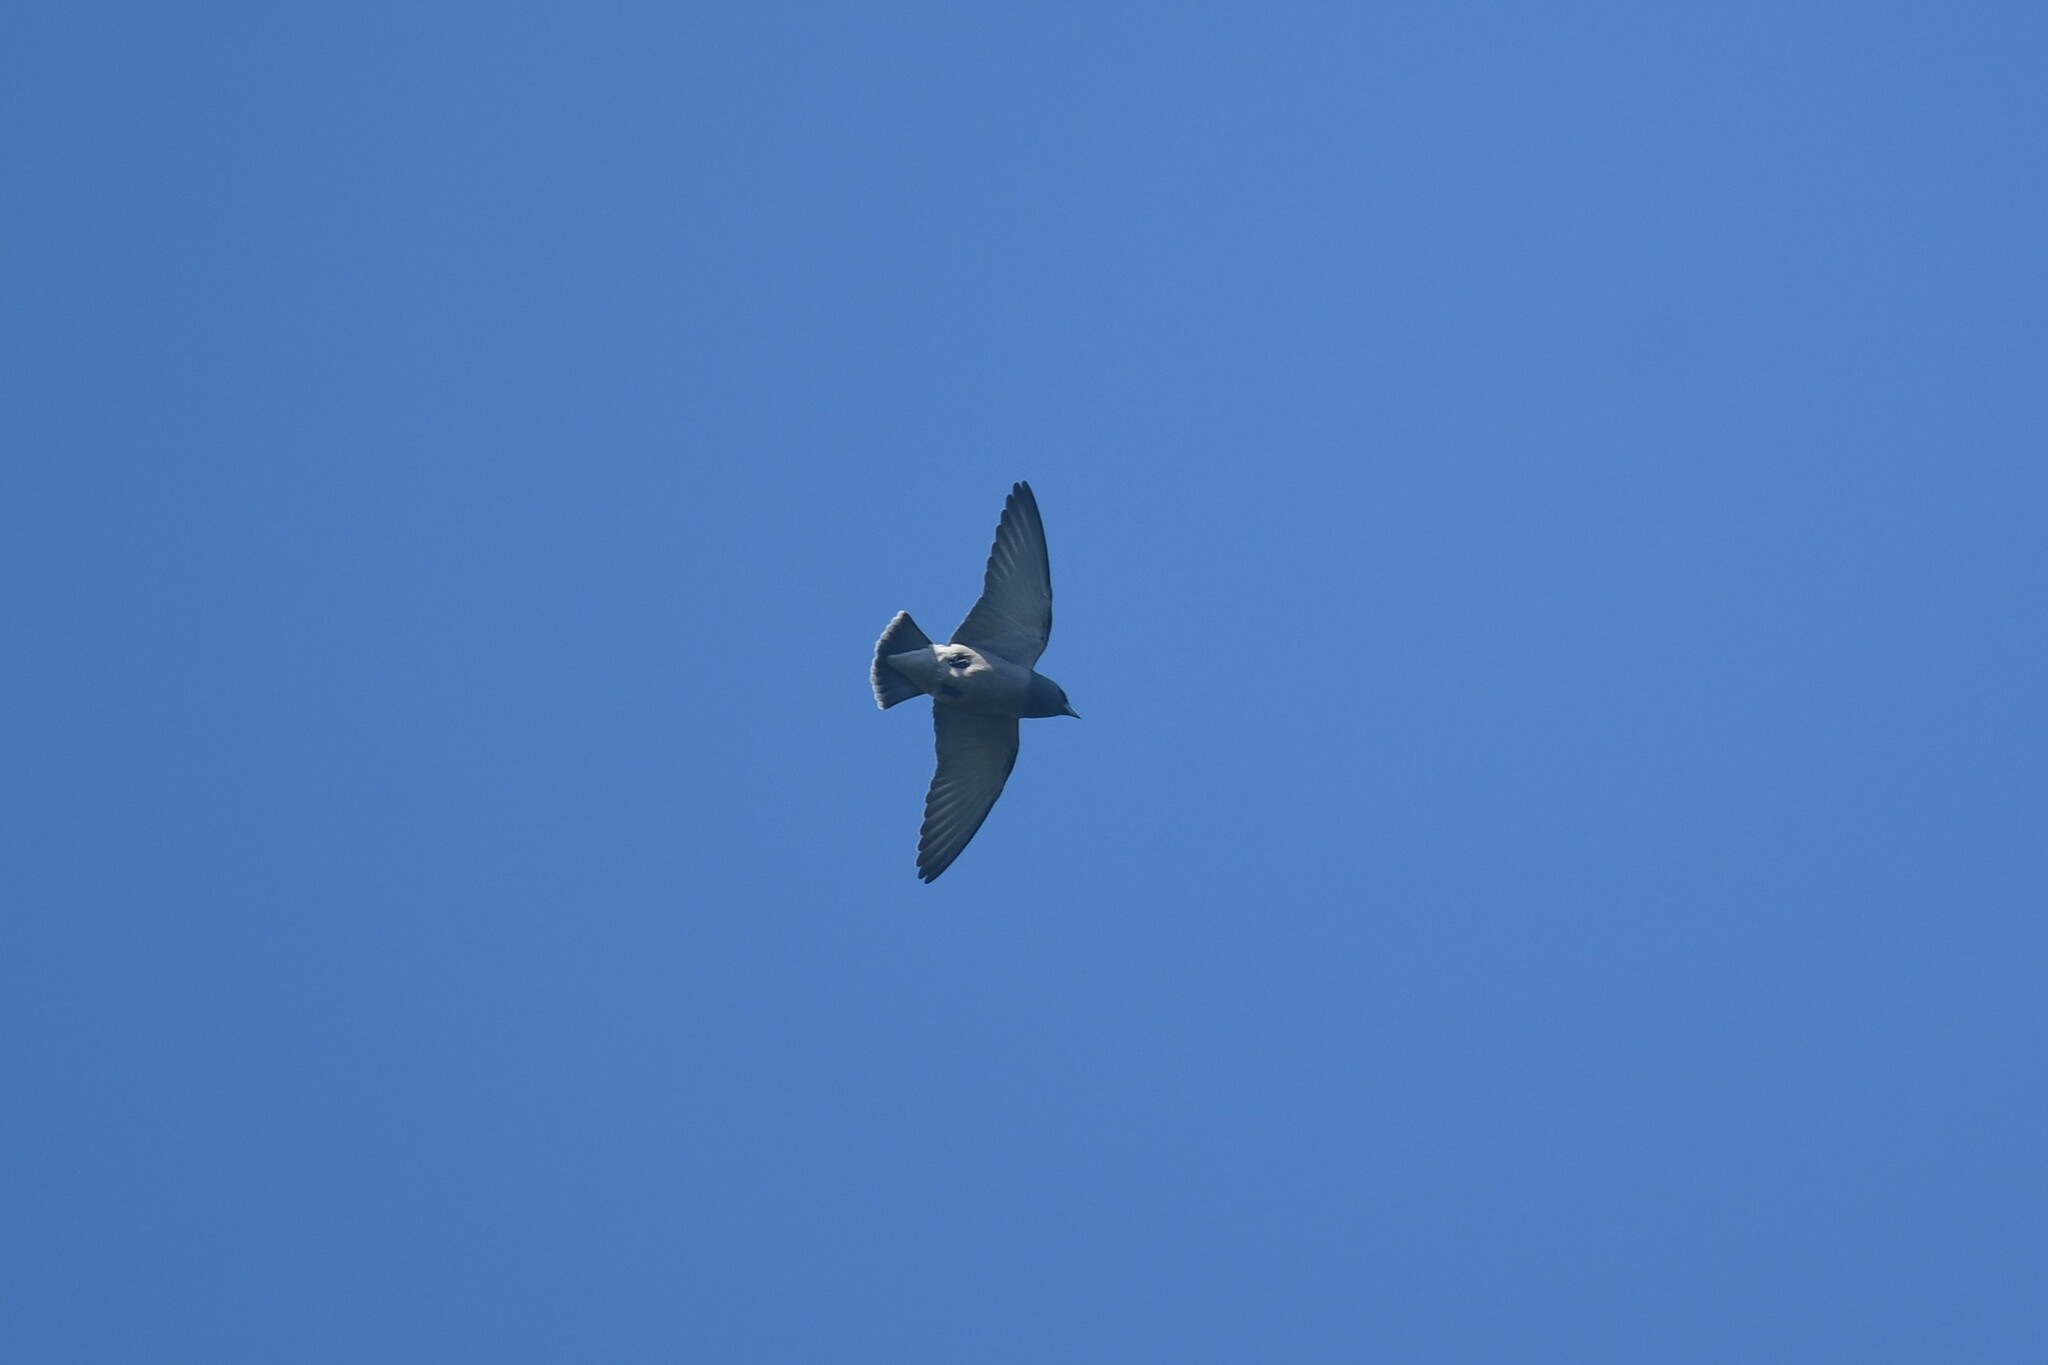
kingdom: Animalia
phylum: Chordata
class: Aves
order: Passeriformes
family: Artamidae
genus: Artamus
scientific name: Artamus fuscus
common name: Ashy woodswallow
